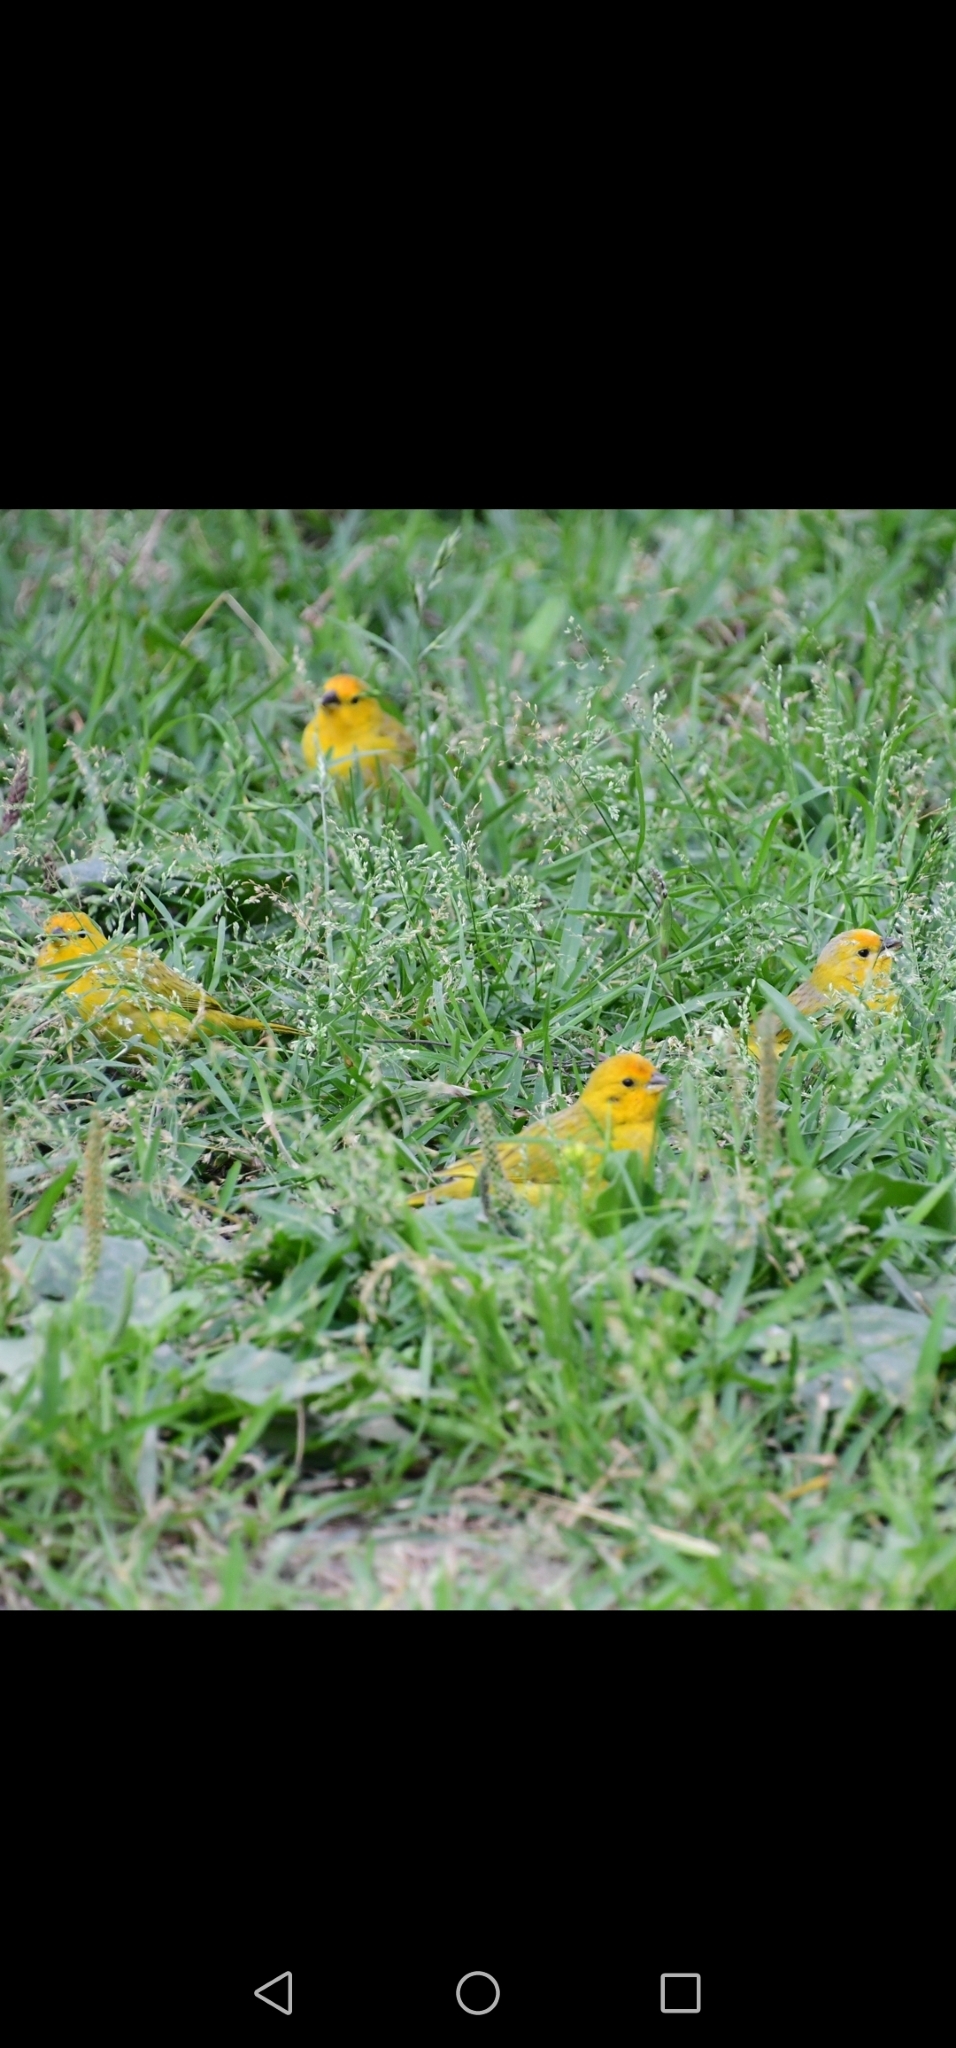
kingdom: Animalia
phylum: Chordata
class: Aves
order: Passeriformes
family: Thraupidae
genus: Sicalis
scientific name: Sicalis flaveola
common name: Saffron finch
